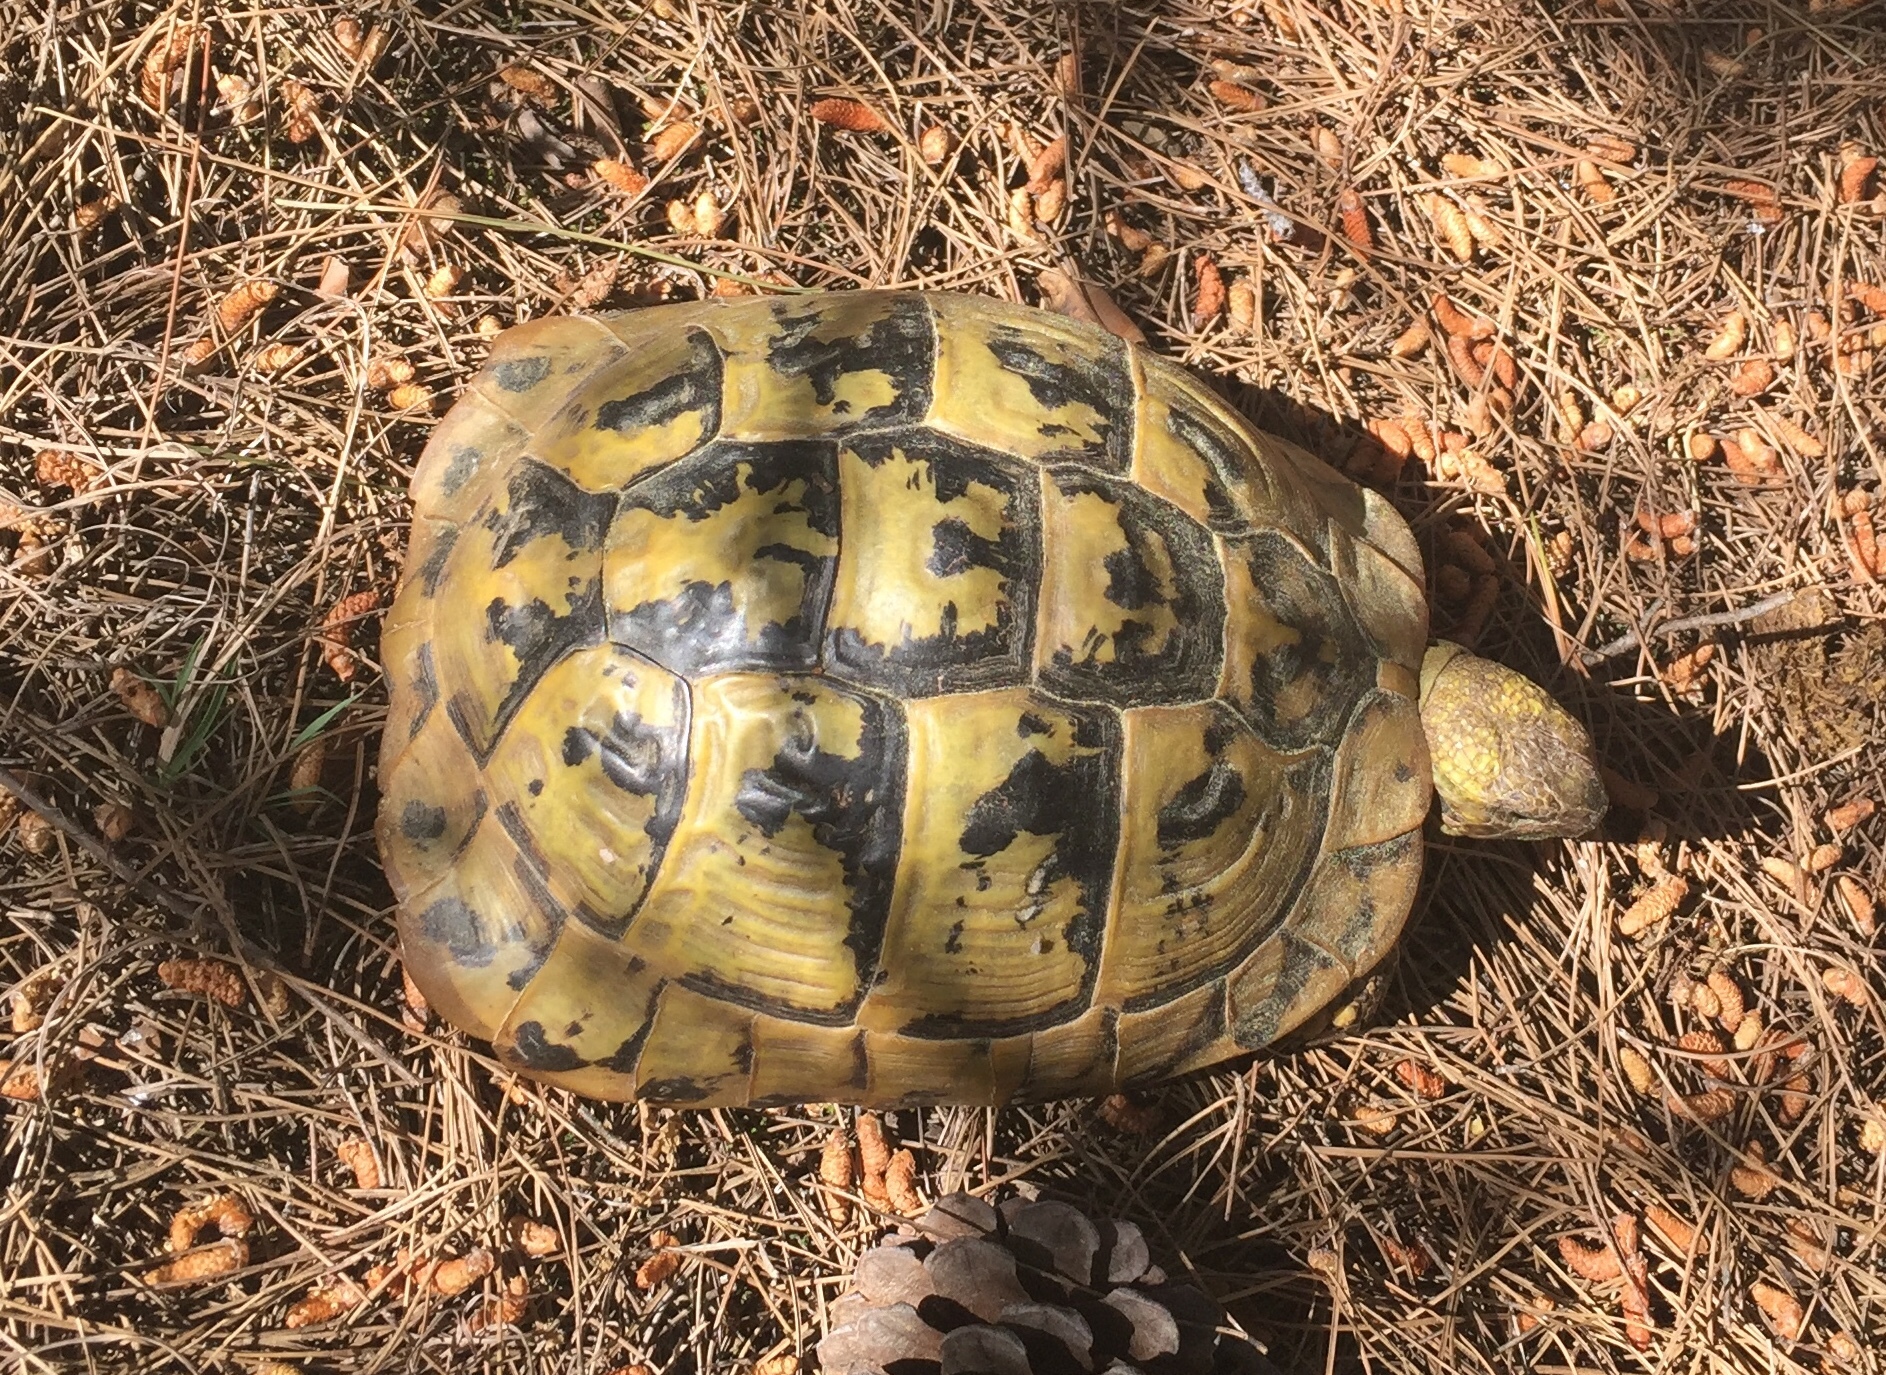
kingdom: Animalia
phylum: Chordata
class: Testudines
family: Testudinidae
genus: Testudo
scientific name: Testudo hermanni
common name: Hermann's tortoise
